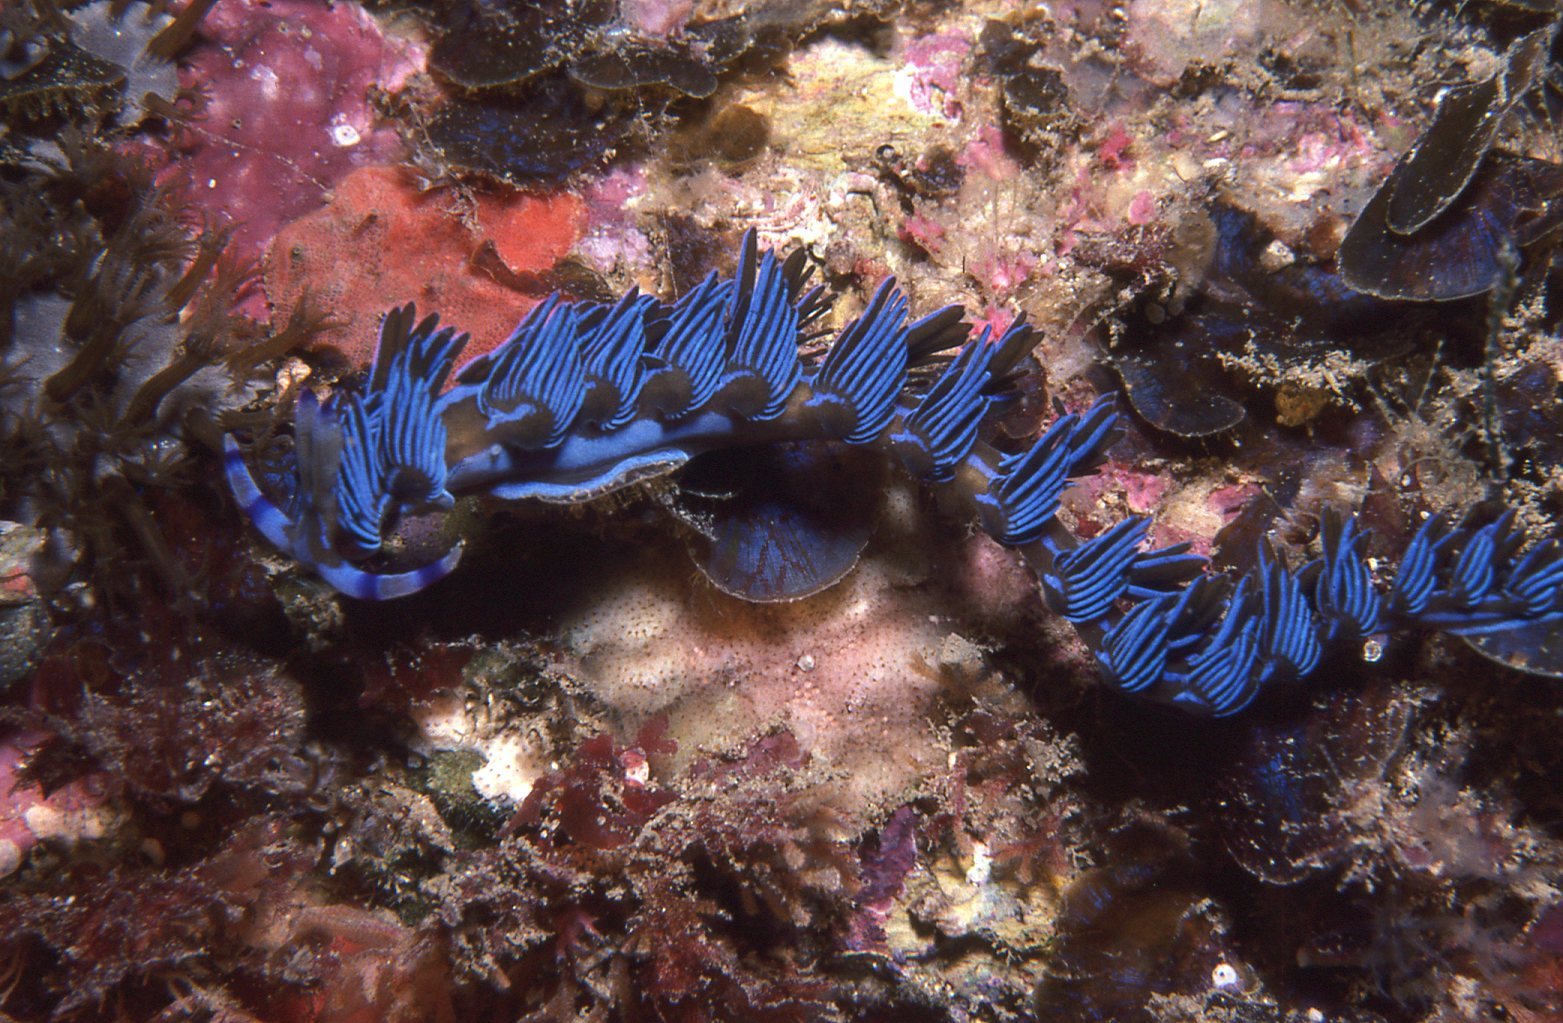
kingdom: Animalia
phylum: Mollusca
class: Gastropoda
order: Nudibranchia
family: Facelinidae
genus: Pteraeolidia
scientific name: Pteraeolidia ianthina
